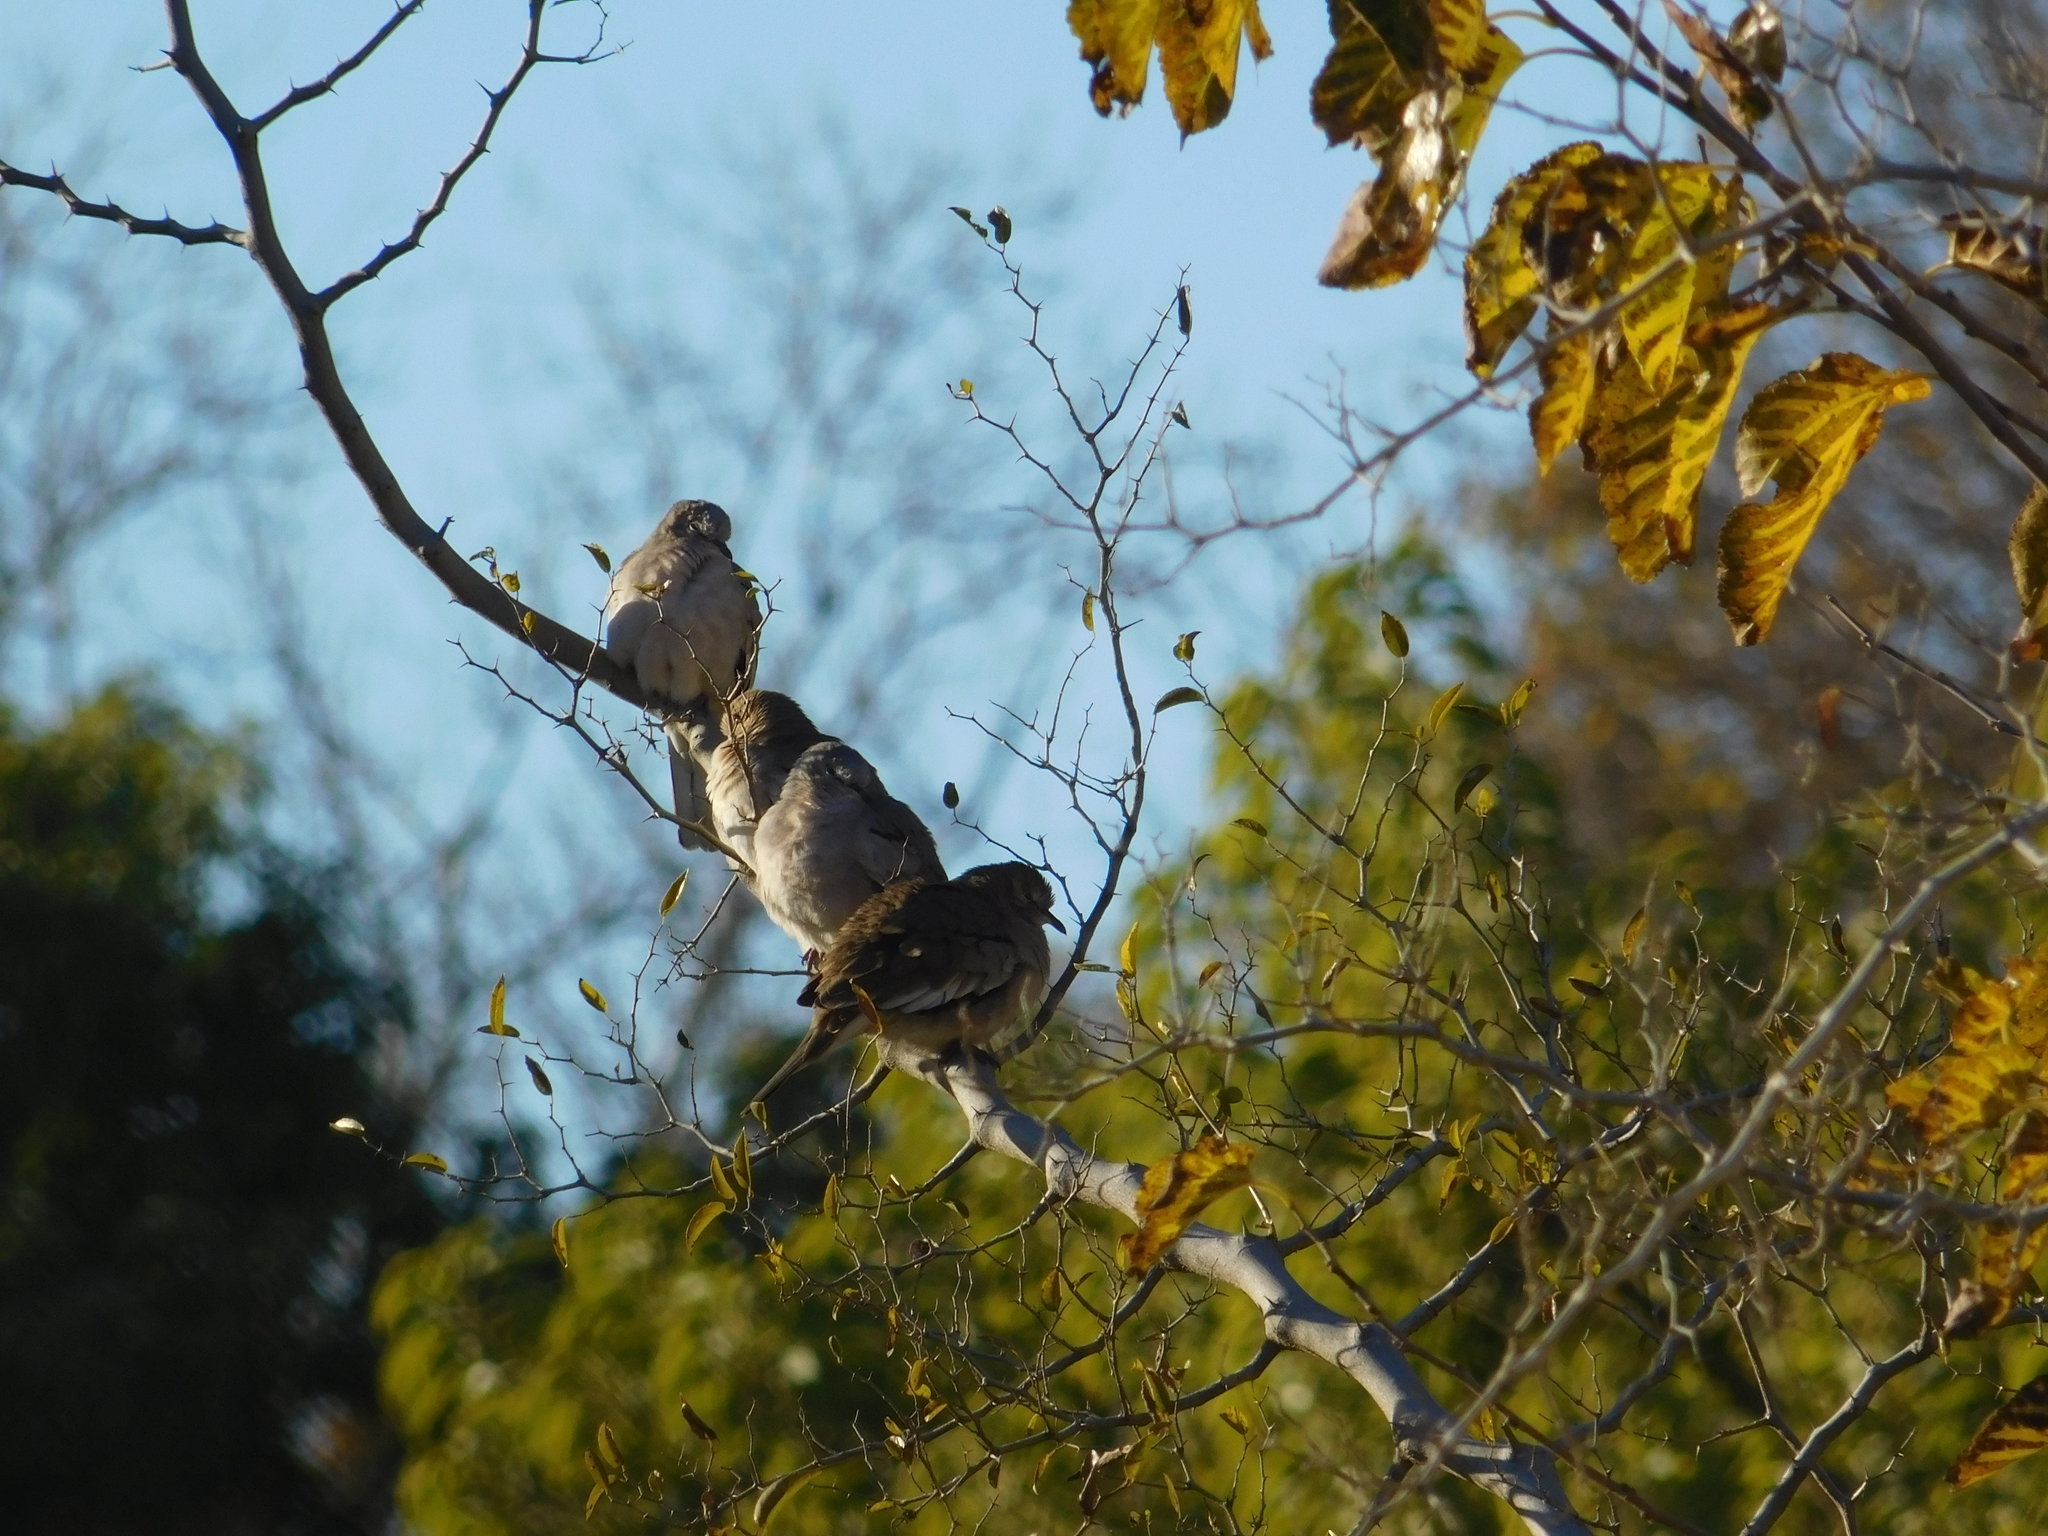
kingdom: Animalia
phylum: Chordata
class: Aves
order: Columbiformes
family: Columbidae
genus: Columbina
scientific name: Columbina picui
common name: Picui ground dove
